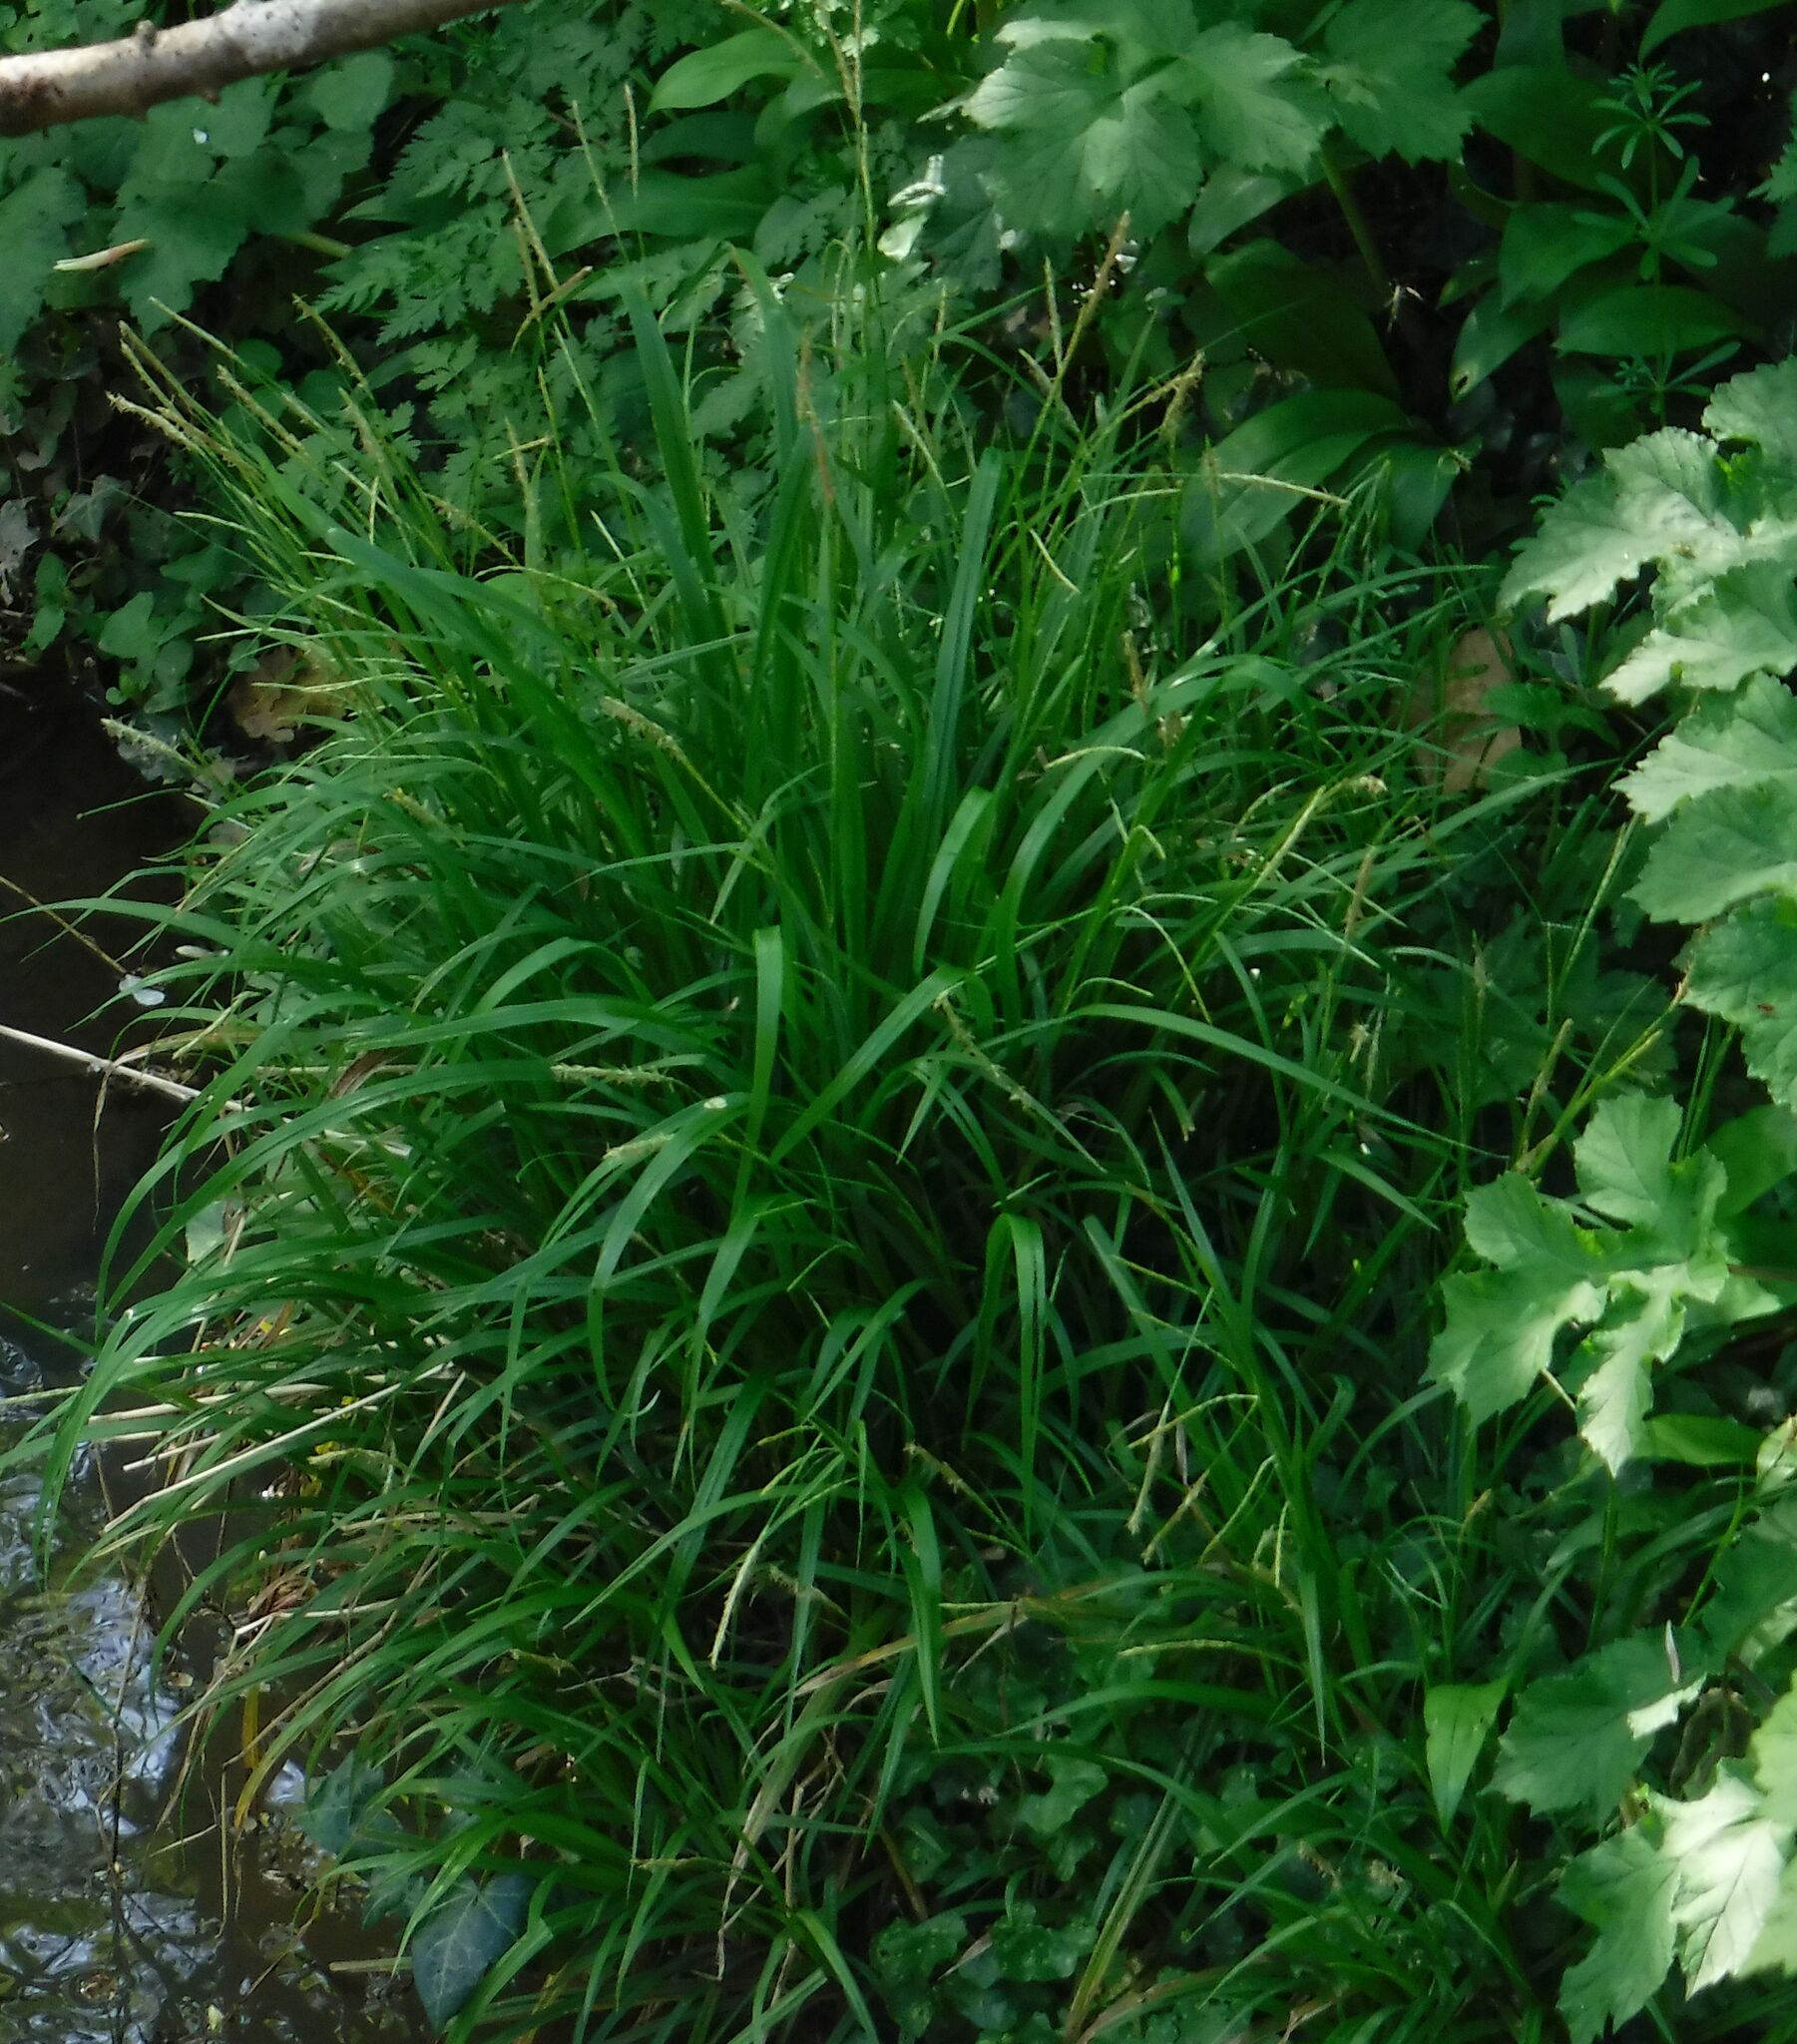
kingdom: Plantae
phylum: Tracheophyta
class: Liliopsida
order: Poales
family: Cyperaceae
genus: Carex
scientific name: Carex sylvatica
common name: Wood-sedge
